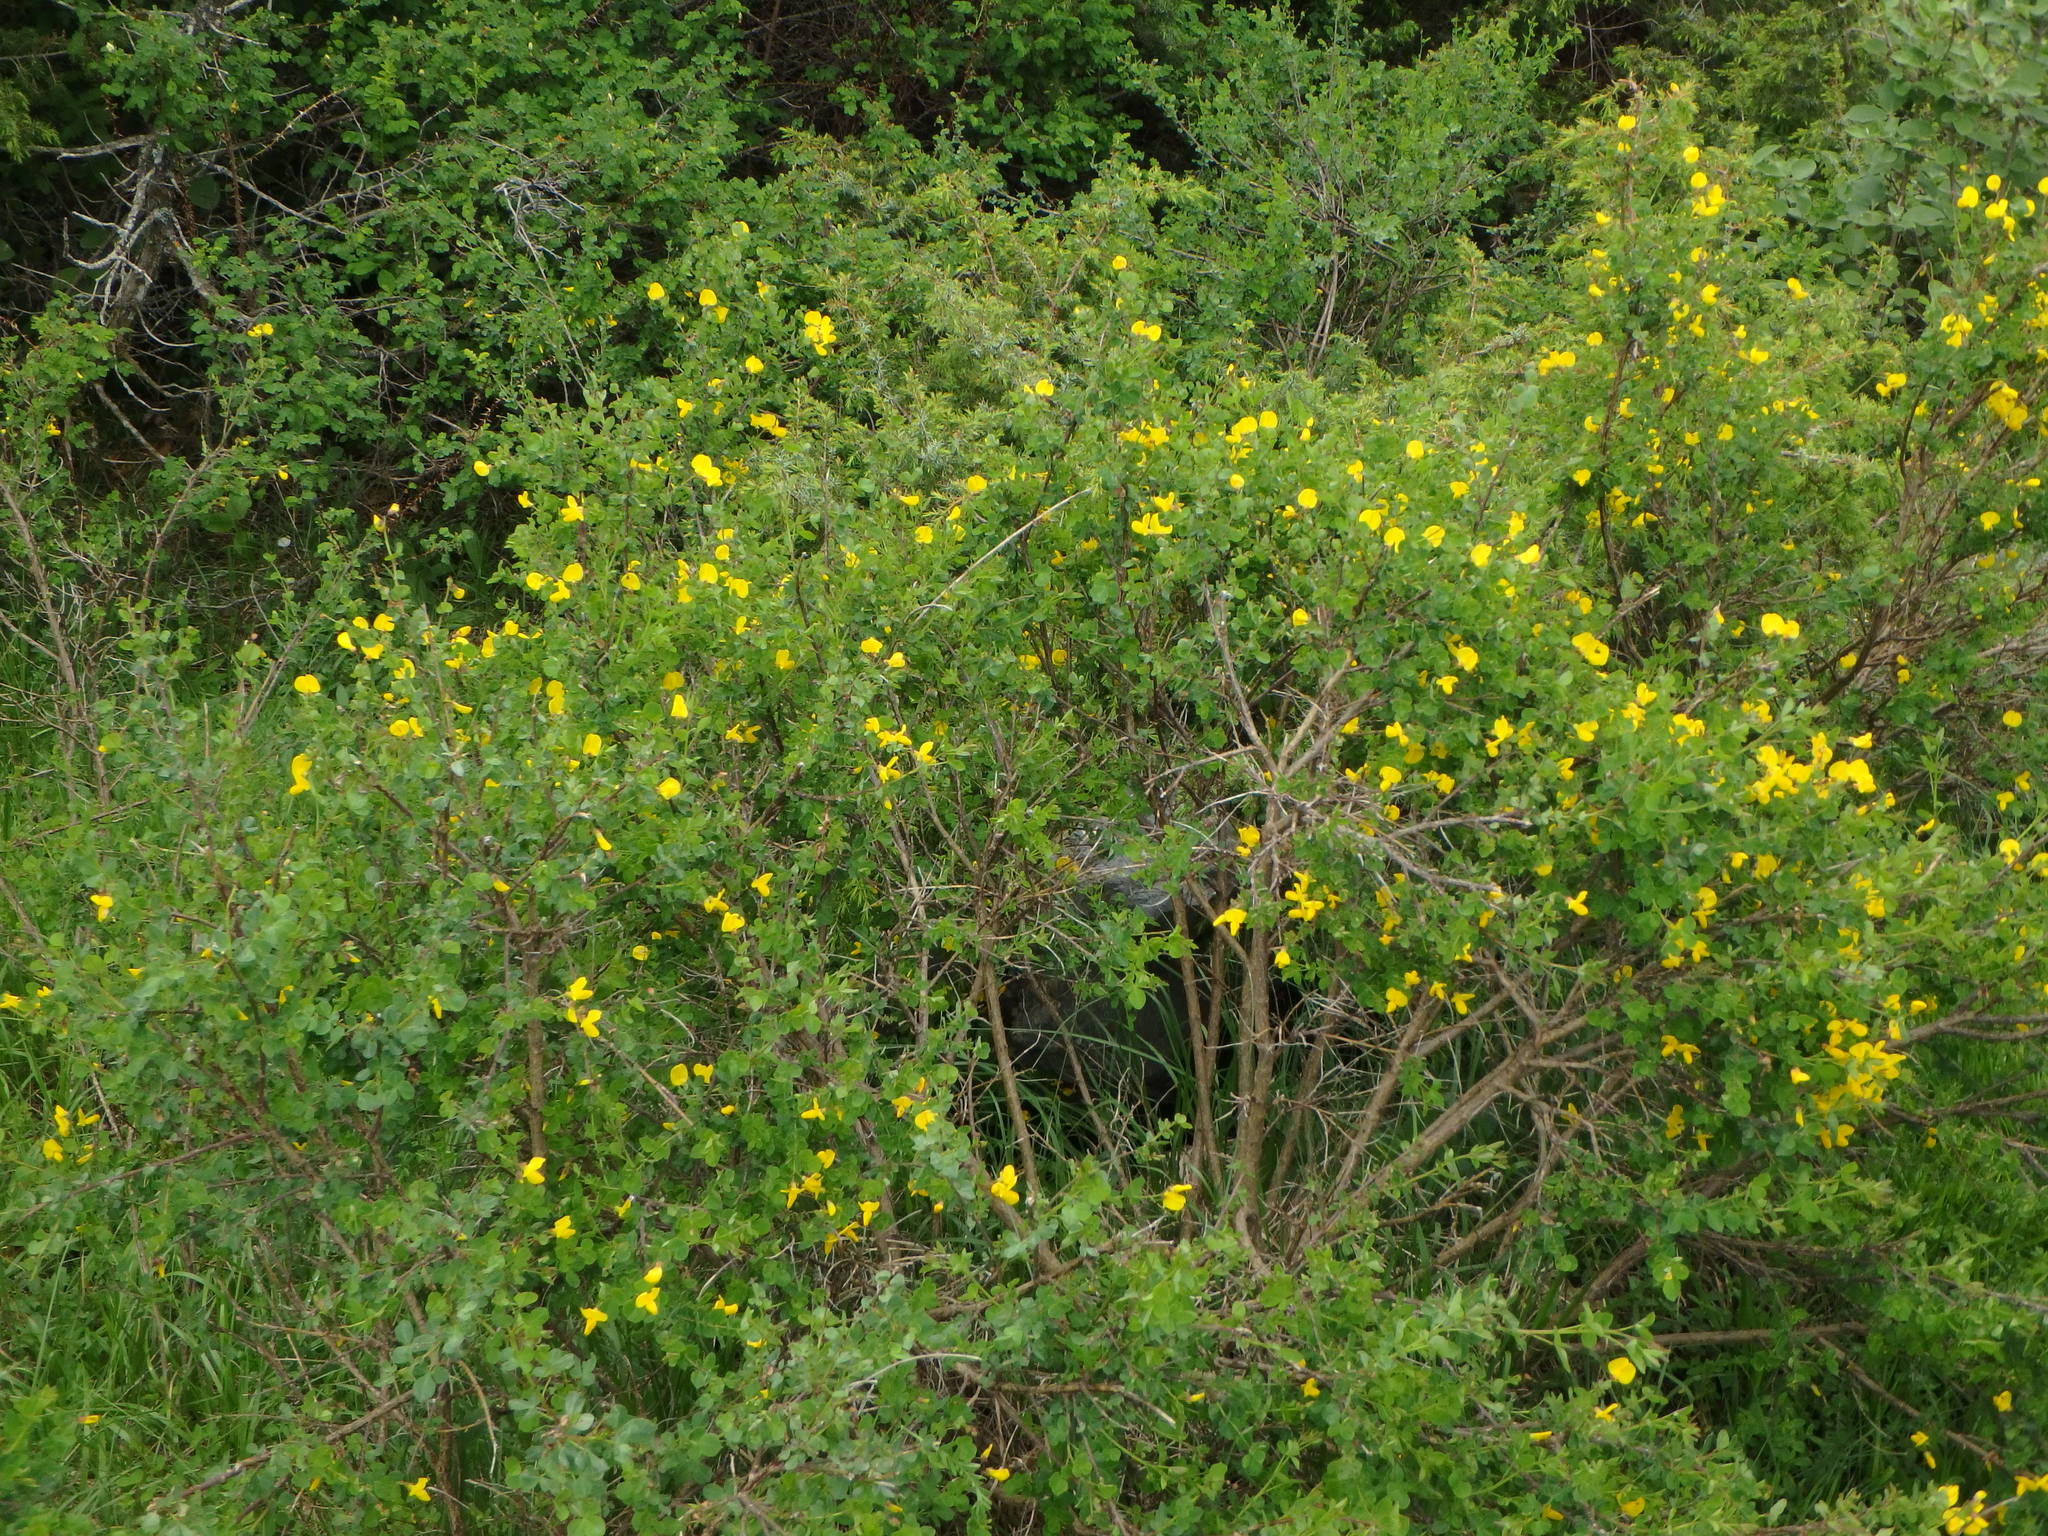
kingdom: Plantae
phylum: Tracheophyta
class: Magnoliopsida
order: Fabales
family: Fabaceae
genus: Cytisophyllum
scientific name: Cytisophyllum sessilifolium
